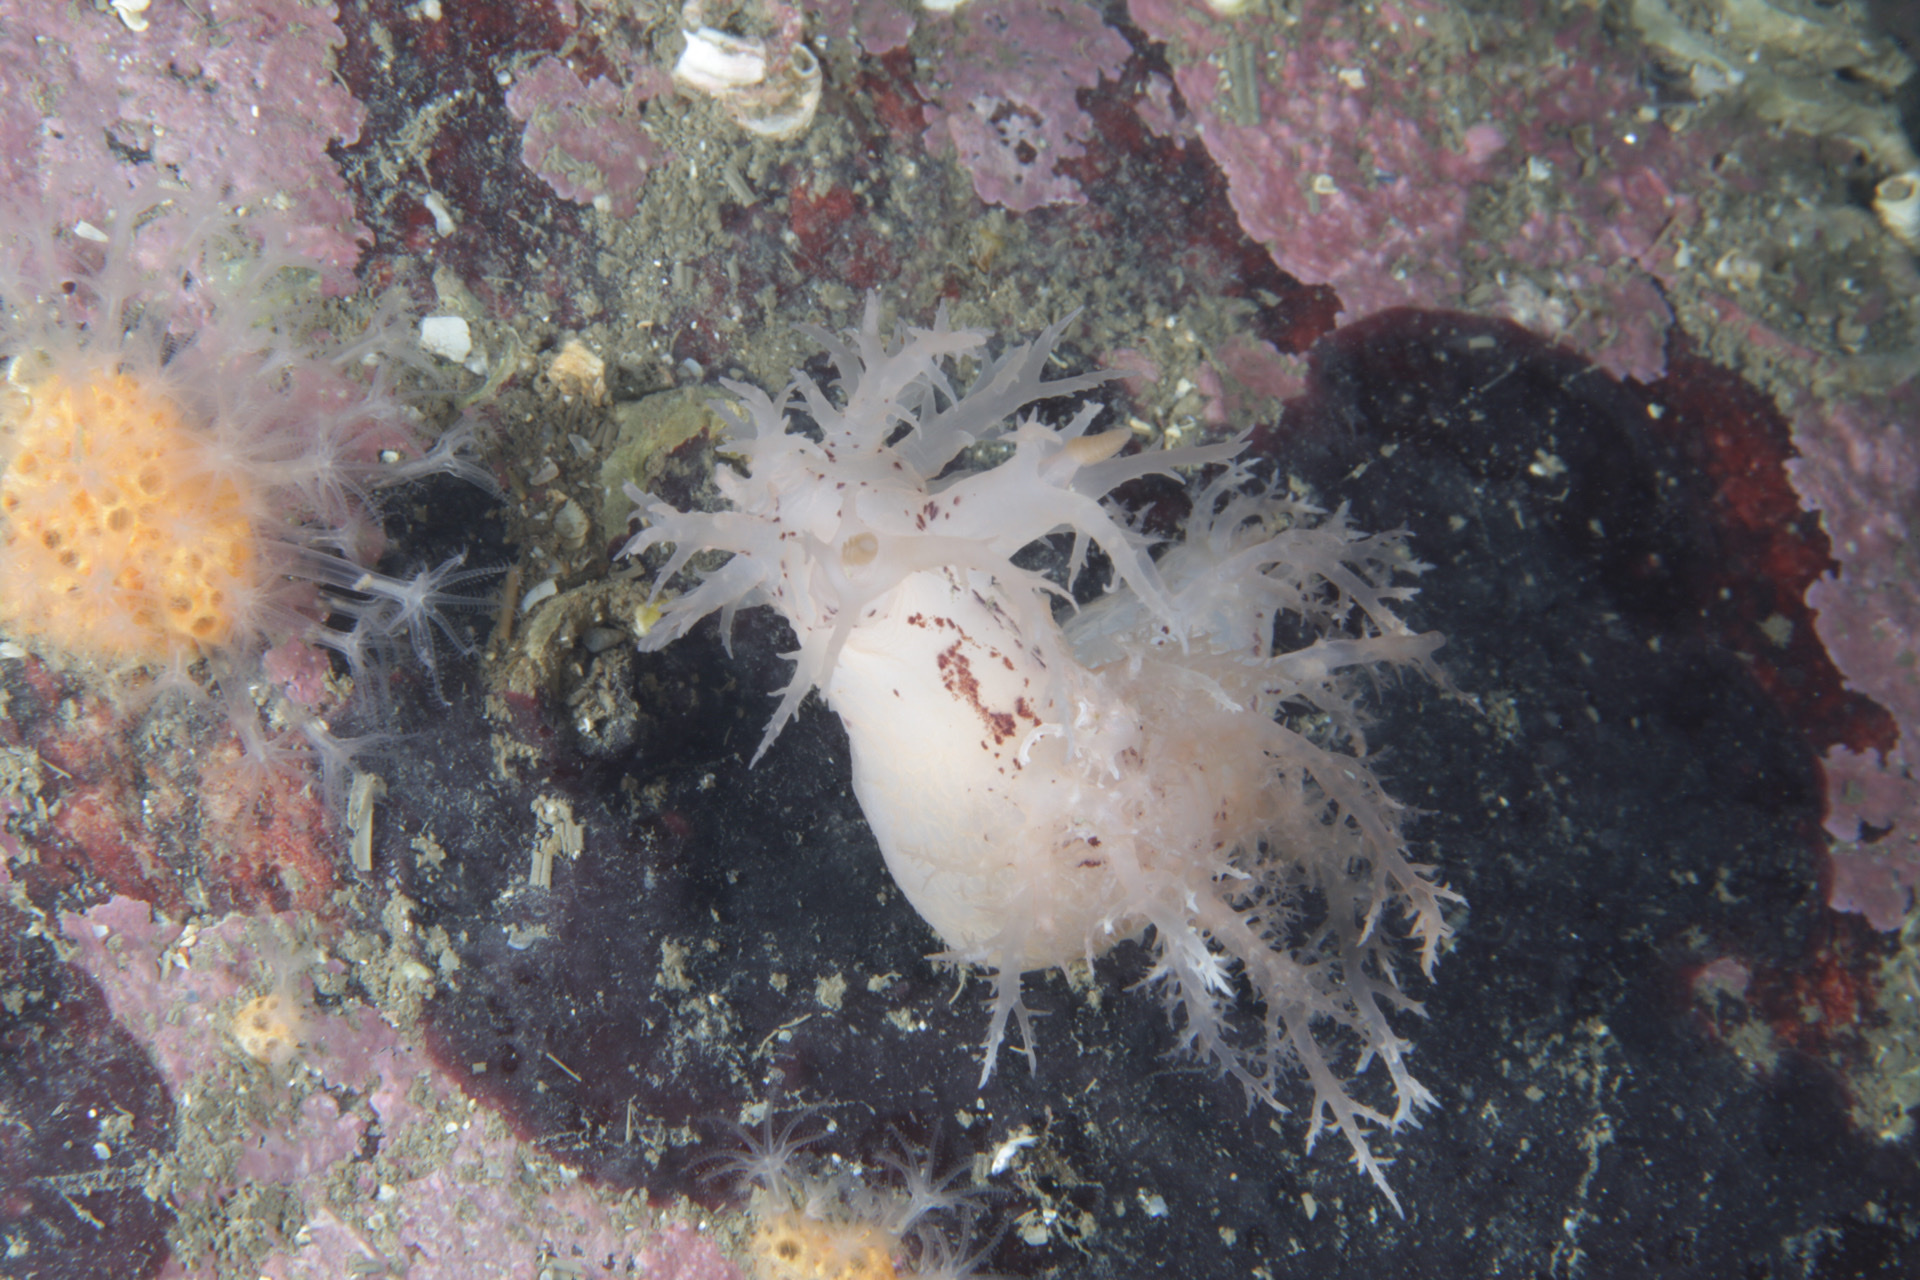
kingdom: Animalia
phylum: Mollusca
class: Gastropoda
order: Nudibranchia
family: Dendronotidae
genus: Dendronotus
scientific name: Dendronotus lacteus
